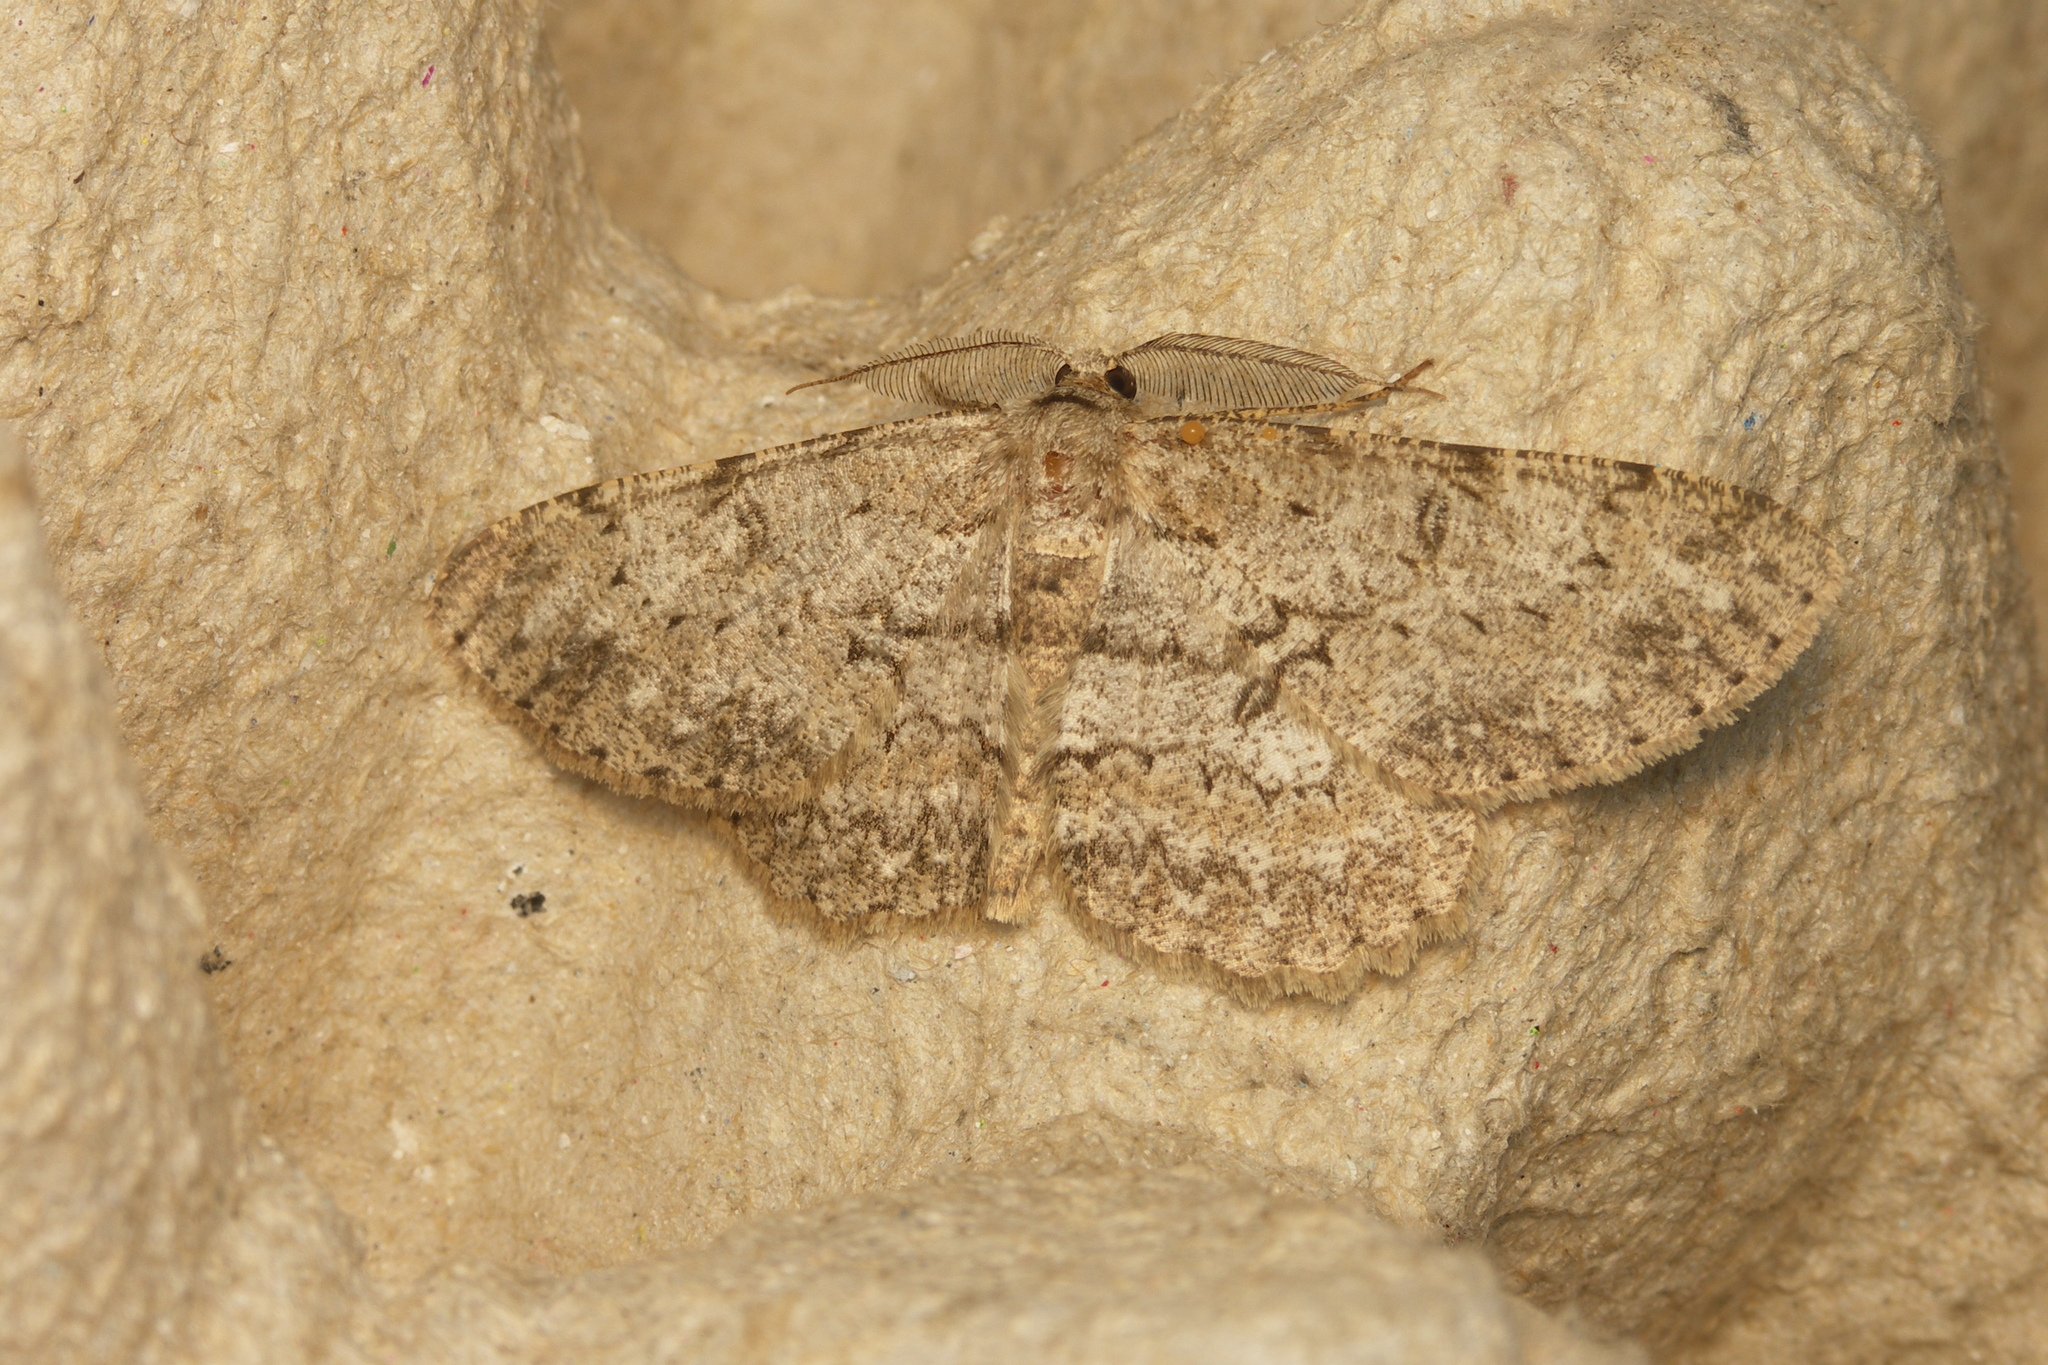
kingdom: Animalia
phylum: Arthropoda
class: Insecta
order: Lepidoptera
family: Geometridae
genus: Hypomecis
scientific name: Hypomecis punctinalis
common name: Pale oak beauty
